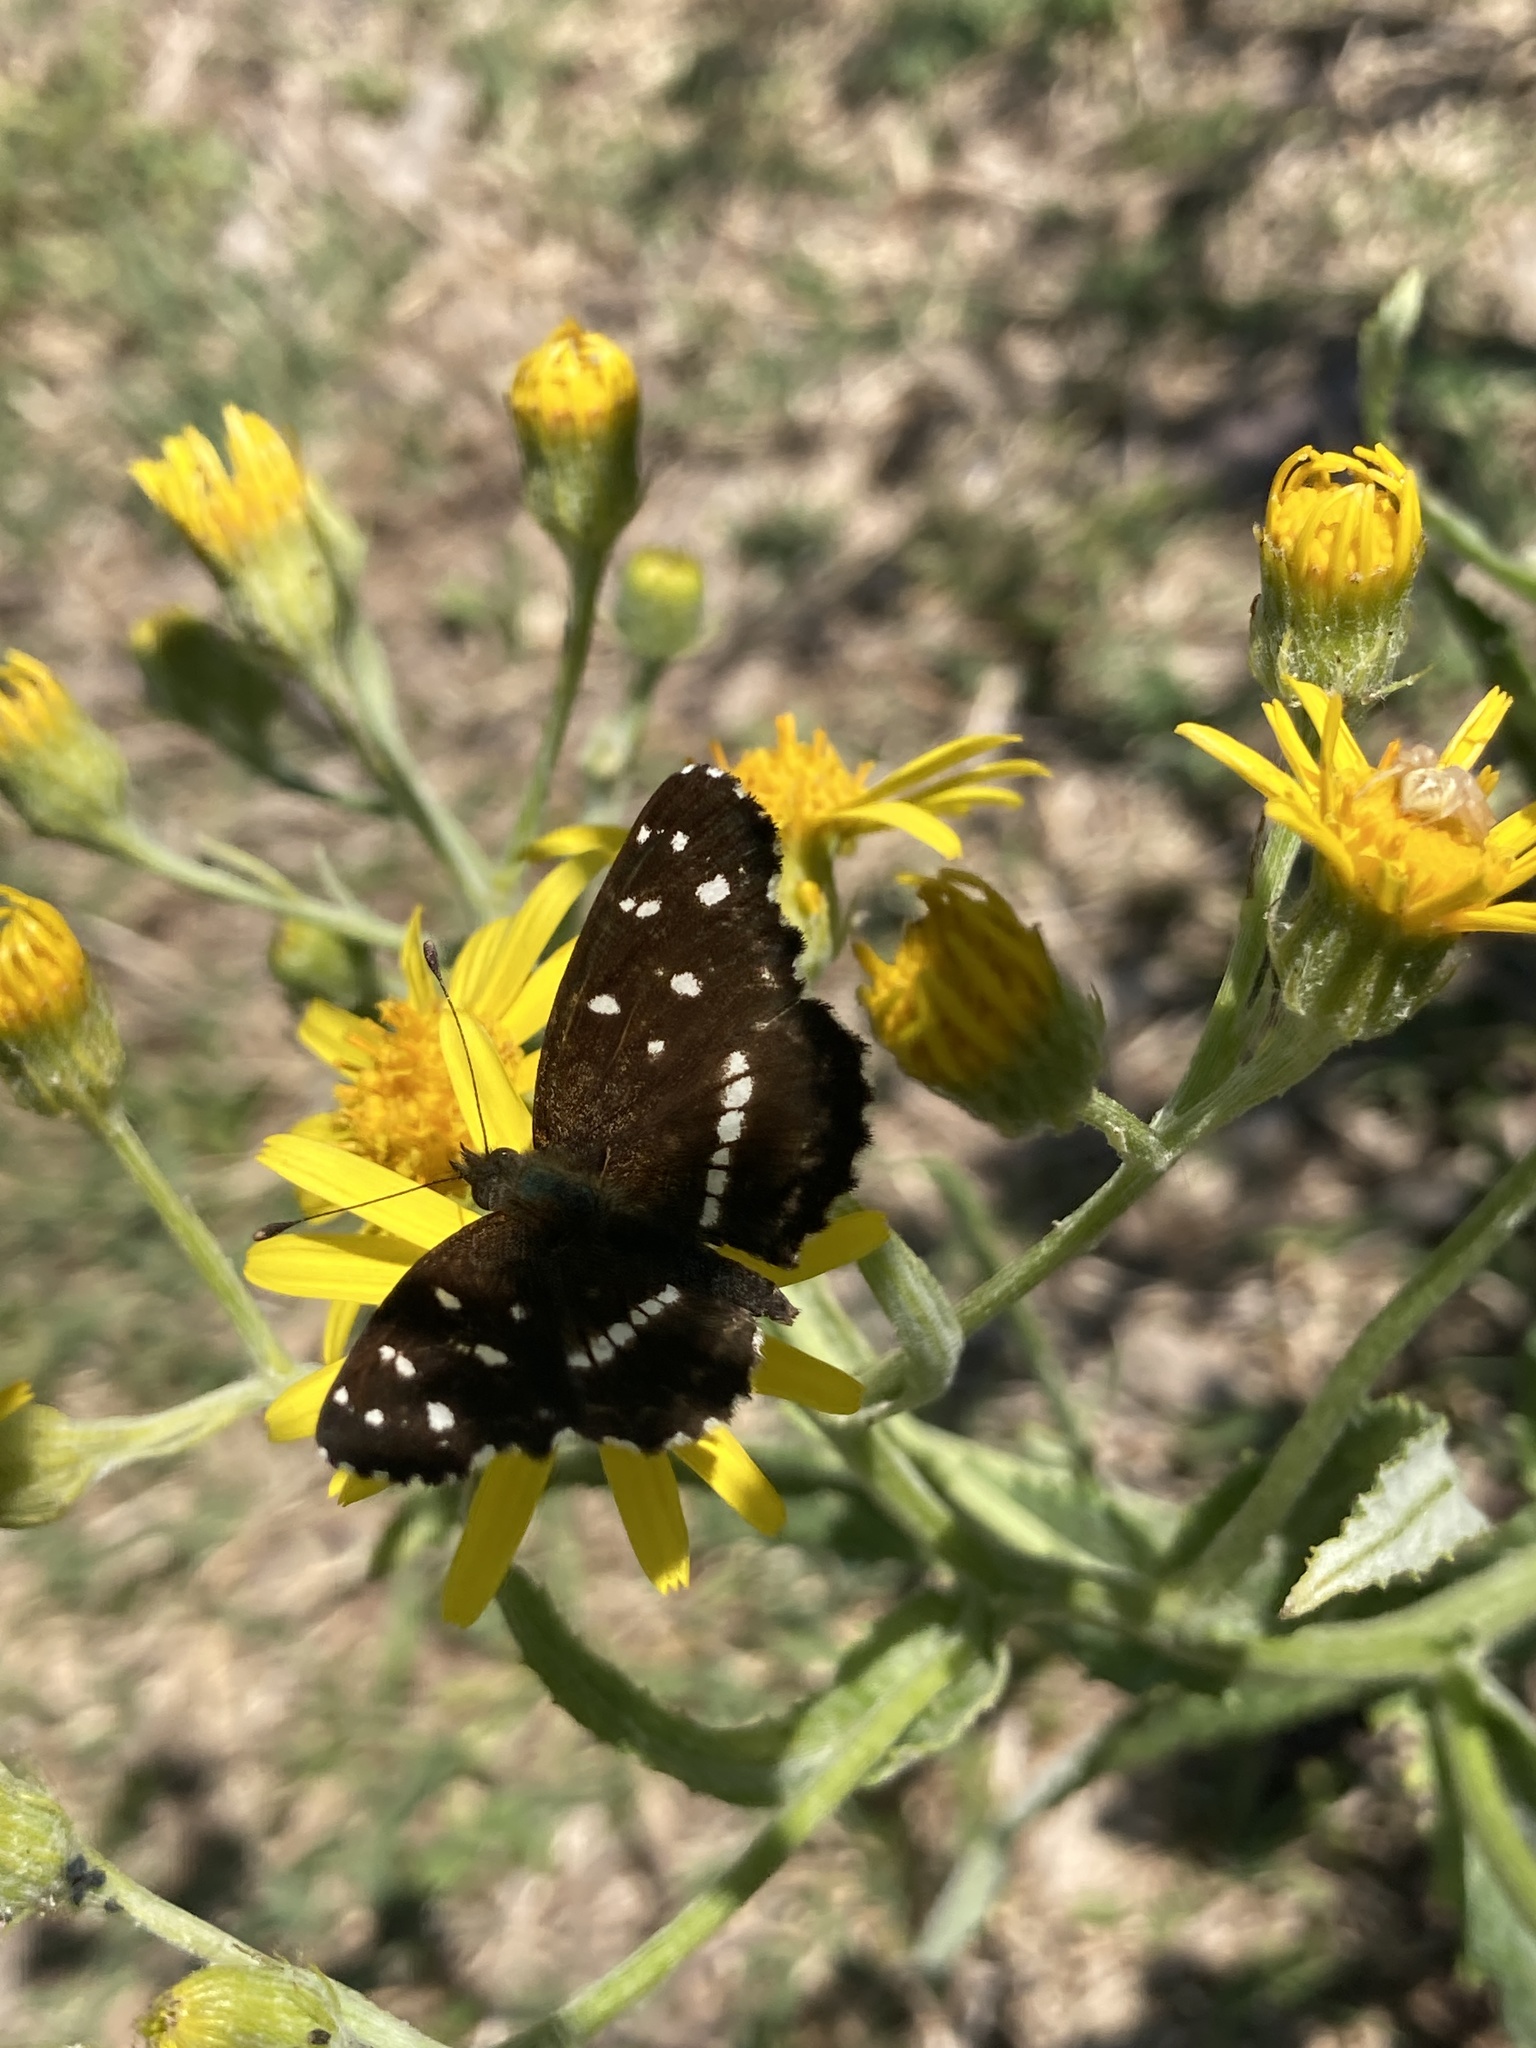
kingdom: Animalia
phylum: Arthropoda
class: Insecta
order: Lepidoptera
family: Nymphalidae
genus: Ortilia
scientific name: Ortilia ithra
